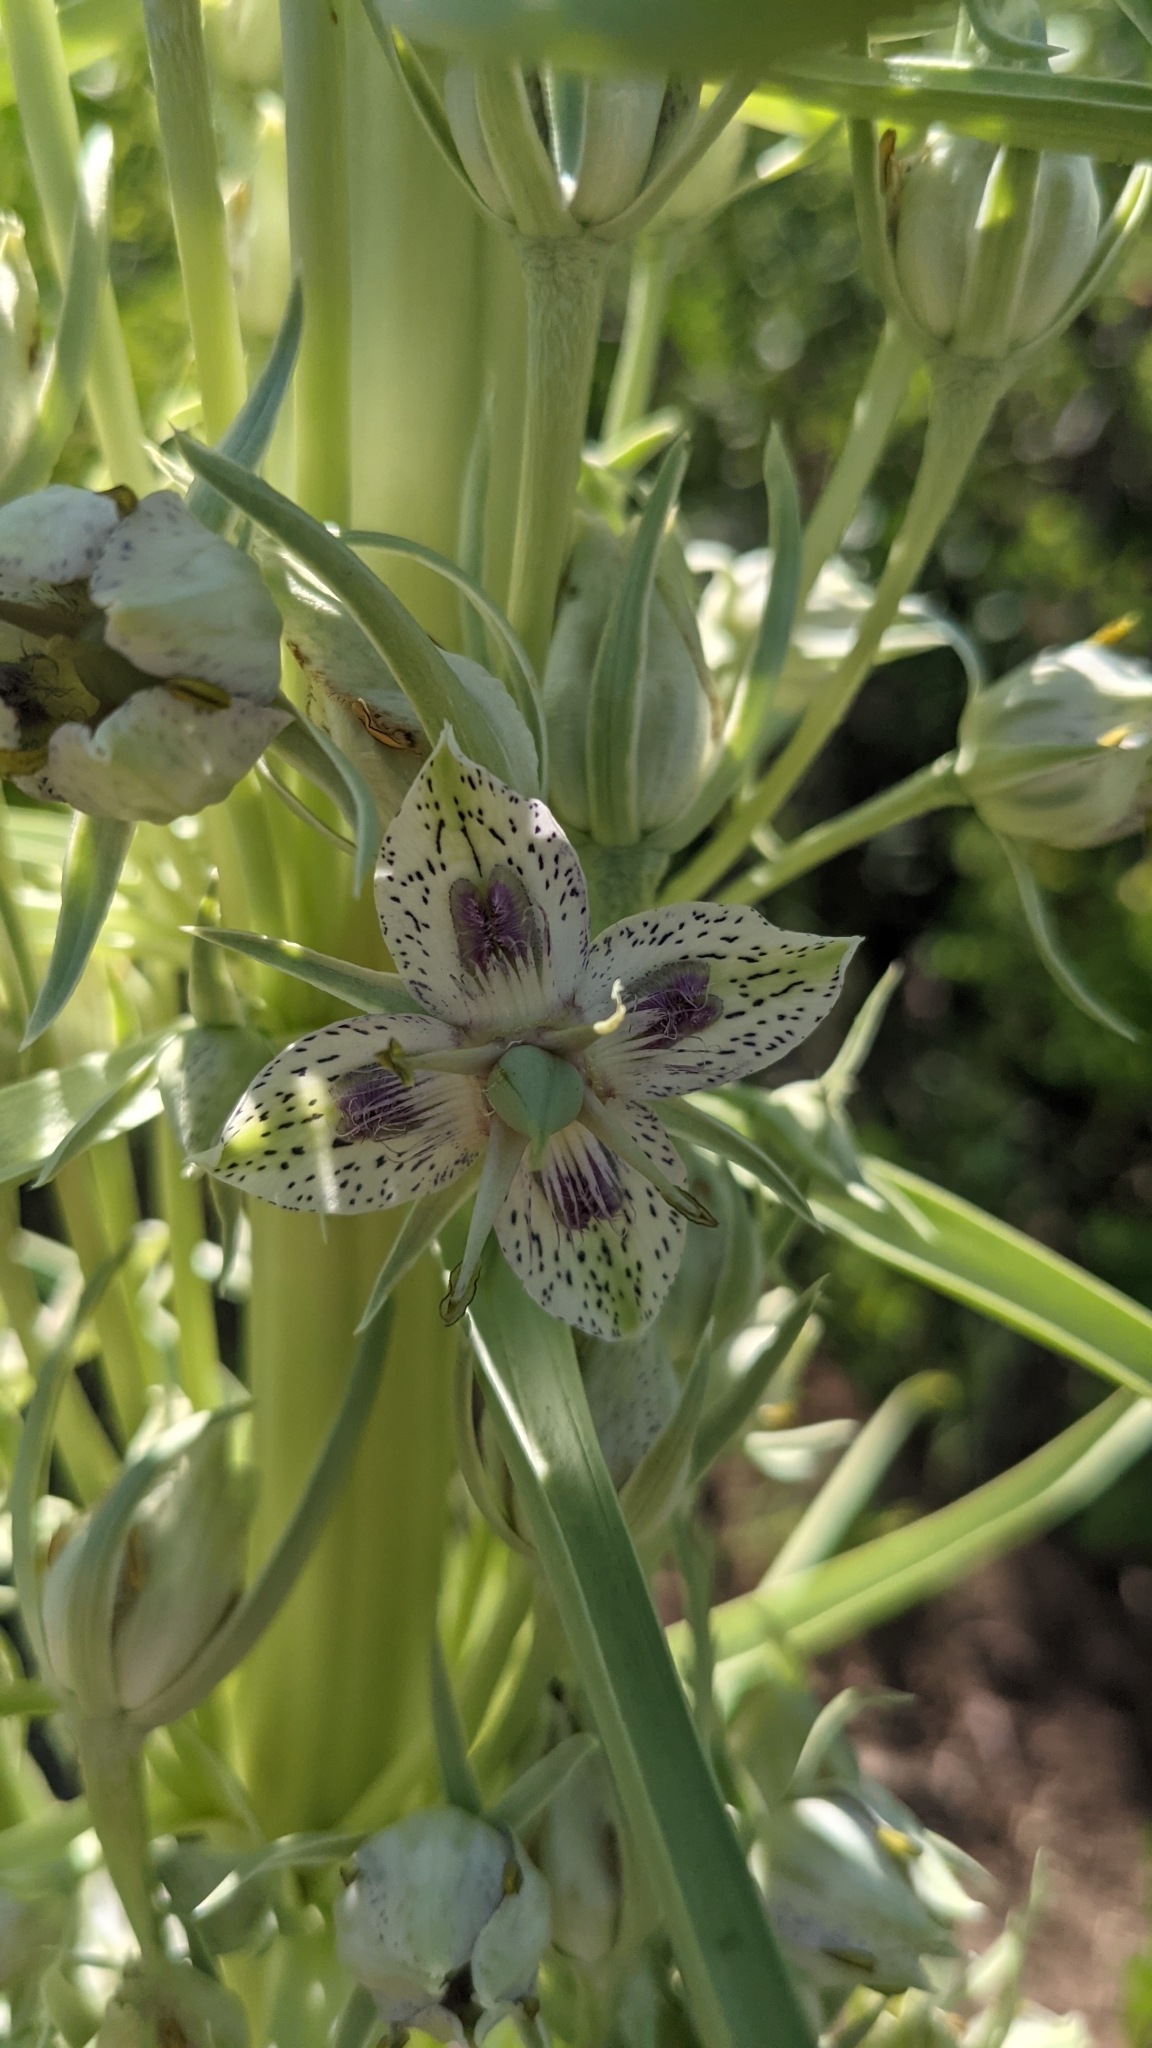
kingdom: Plantae
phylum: Tracheophyta
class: Magnoliopsida
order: Gentianales
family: Gentianaceae
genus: Frasera
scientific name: Frasera speciosa
